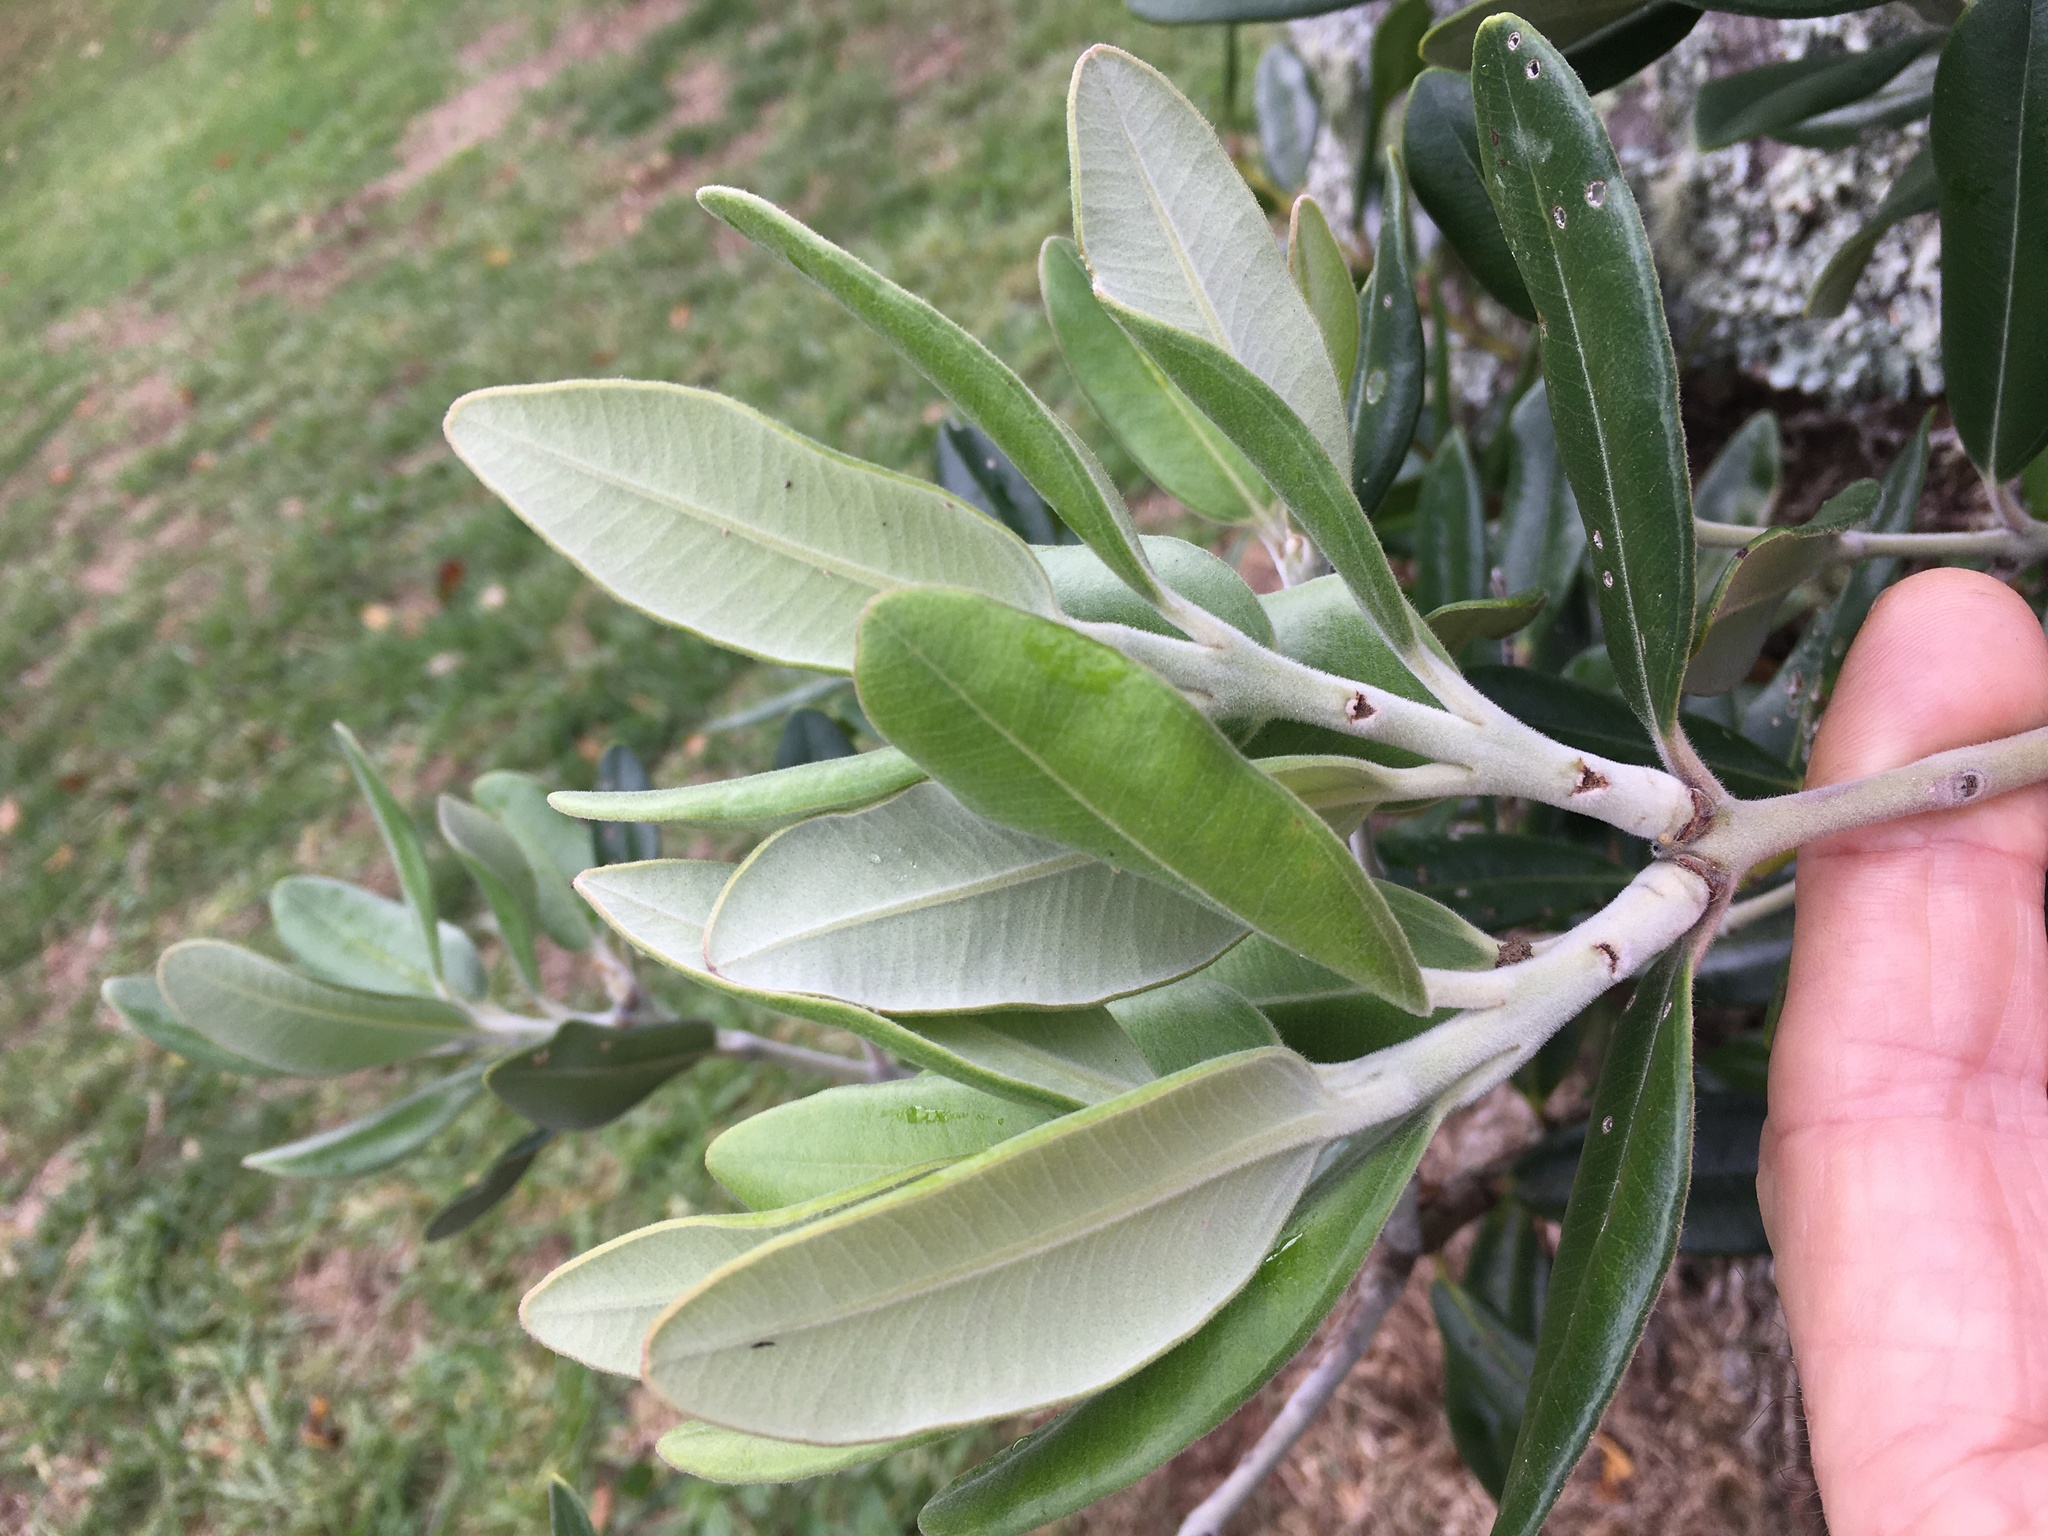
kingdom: Plantae
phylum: Tracheophyta
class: Magnoliopsida
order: Myrtales
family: Myrtaceae
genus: Metrosideros
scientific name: Metrosideros excelsa
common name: New zealand christmastree
